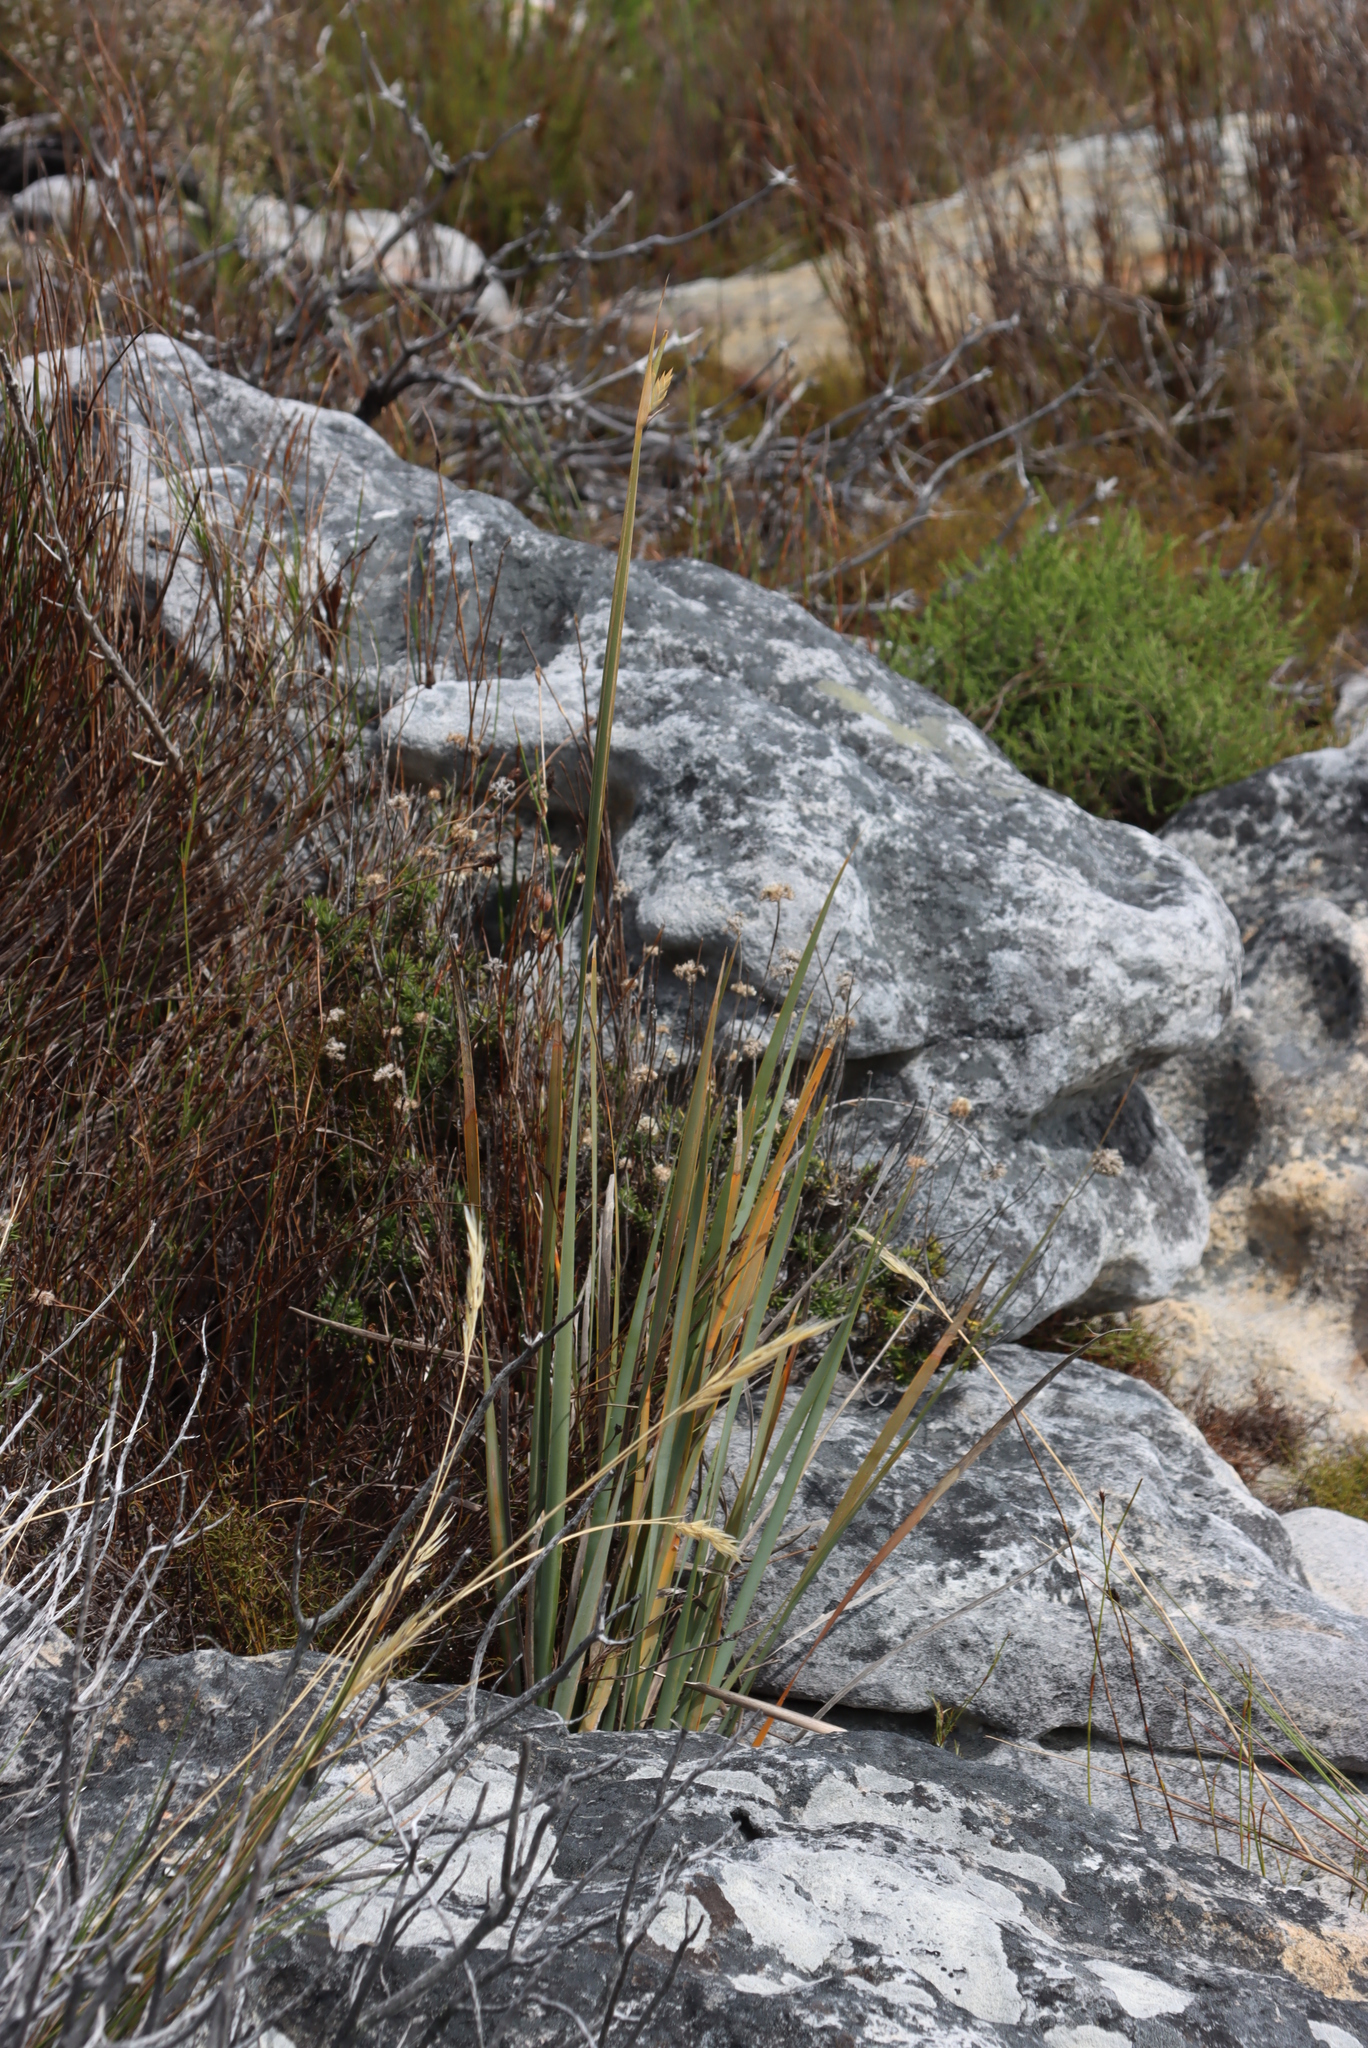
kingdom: Plantae
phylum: Tracheophyta
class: Liliopsida
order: Asparagales
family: Iridaceae
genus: Bobartia
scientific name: Bobartia gladiata
